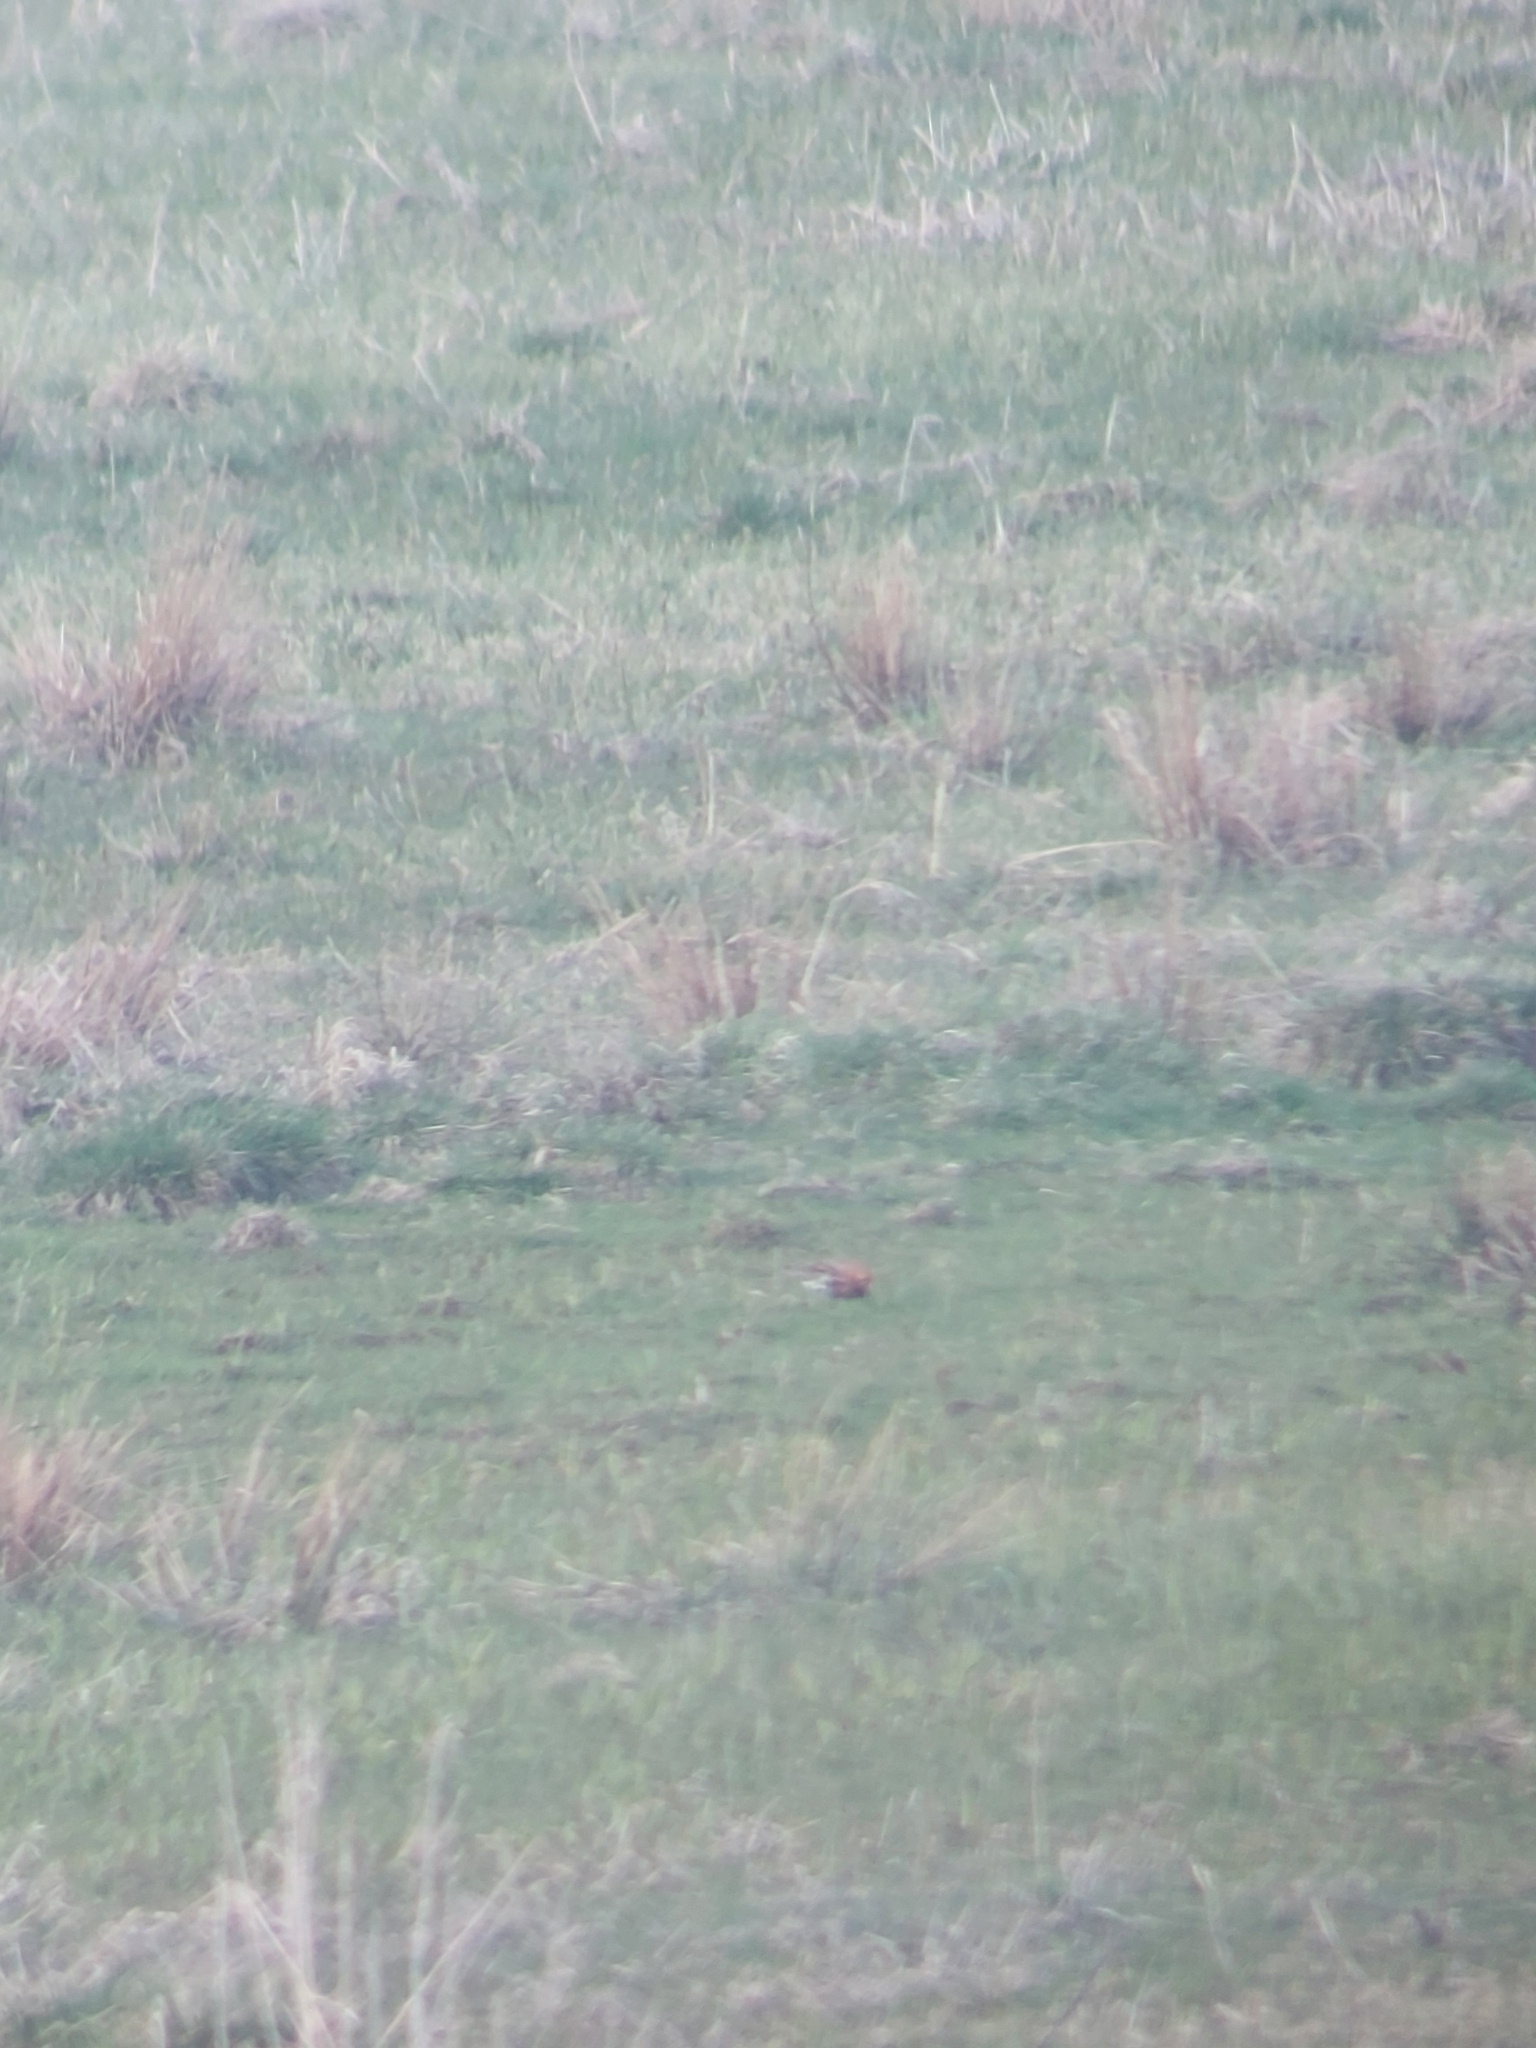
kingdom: Animalia
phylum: Chordata
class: Aves
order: Charadriiformes
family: Scolopacidae
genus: Calidris
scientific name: Calidris pugnax
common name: Ruff
